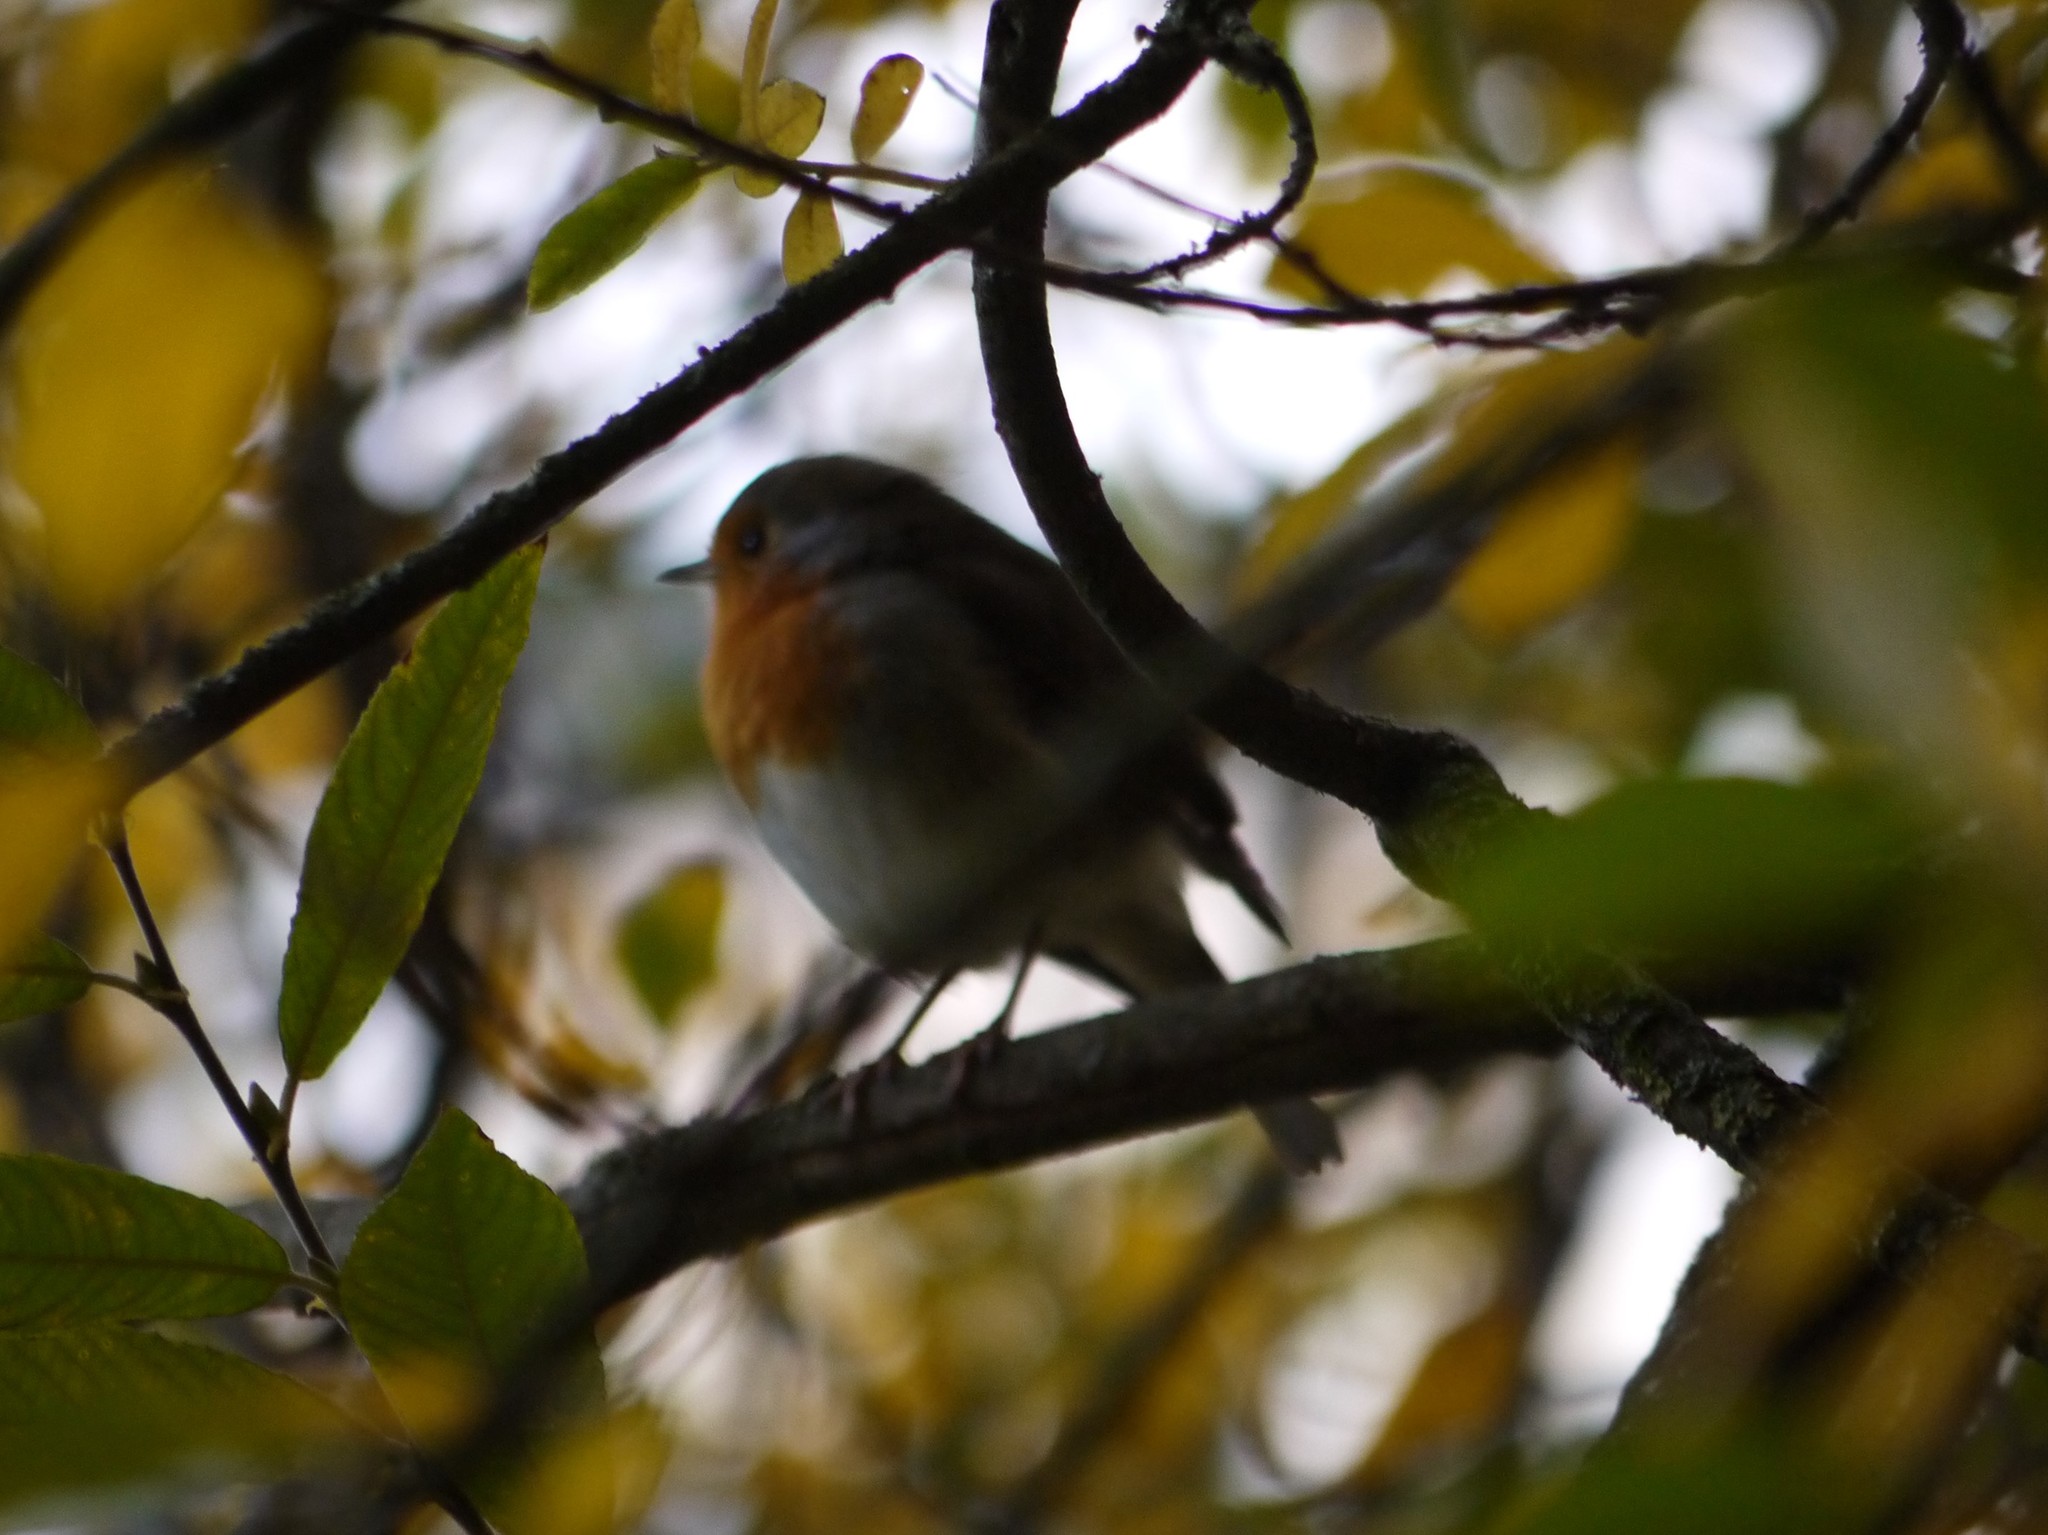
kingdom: Animalia
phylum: Chordata
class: Aves
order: Passeriformes
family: Muscicapidae
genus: Erithacus
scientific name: Erithacus rubecula
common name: European robin
